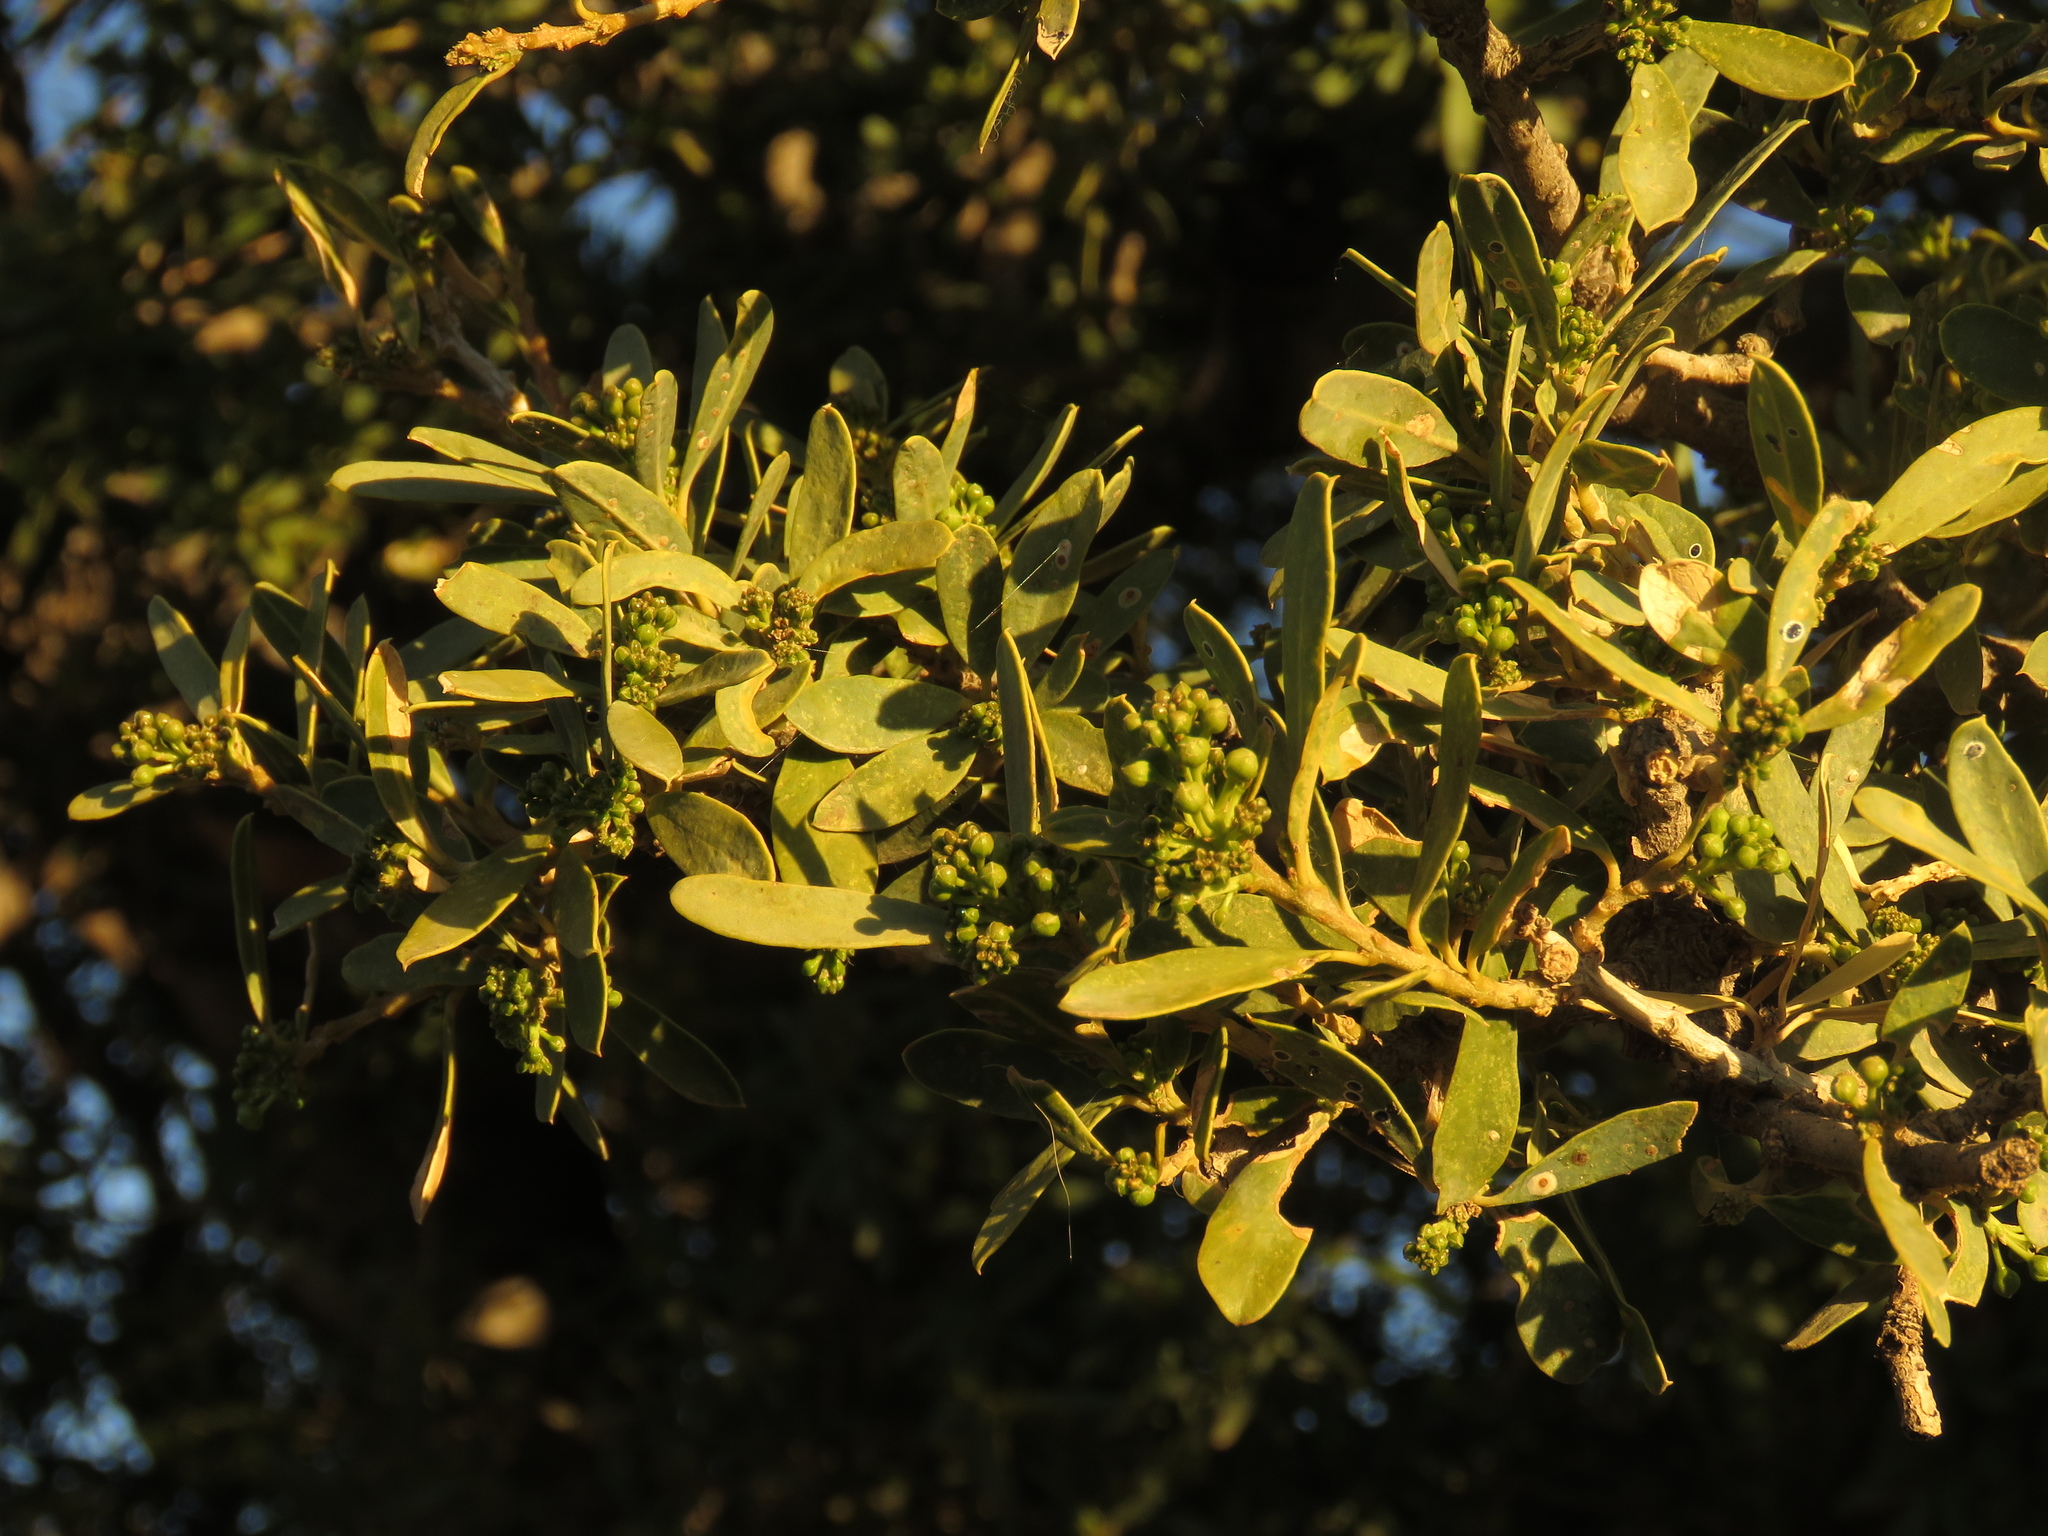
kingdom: Plantae
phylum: Tracheophyta
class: Magnoliopsida
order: Brassicales
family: Capparaceae
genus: Boscia
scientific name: Boscia oleoides
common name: Karoo shepherd tree
